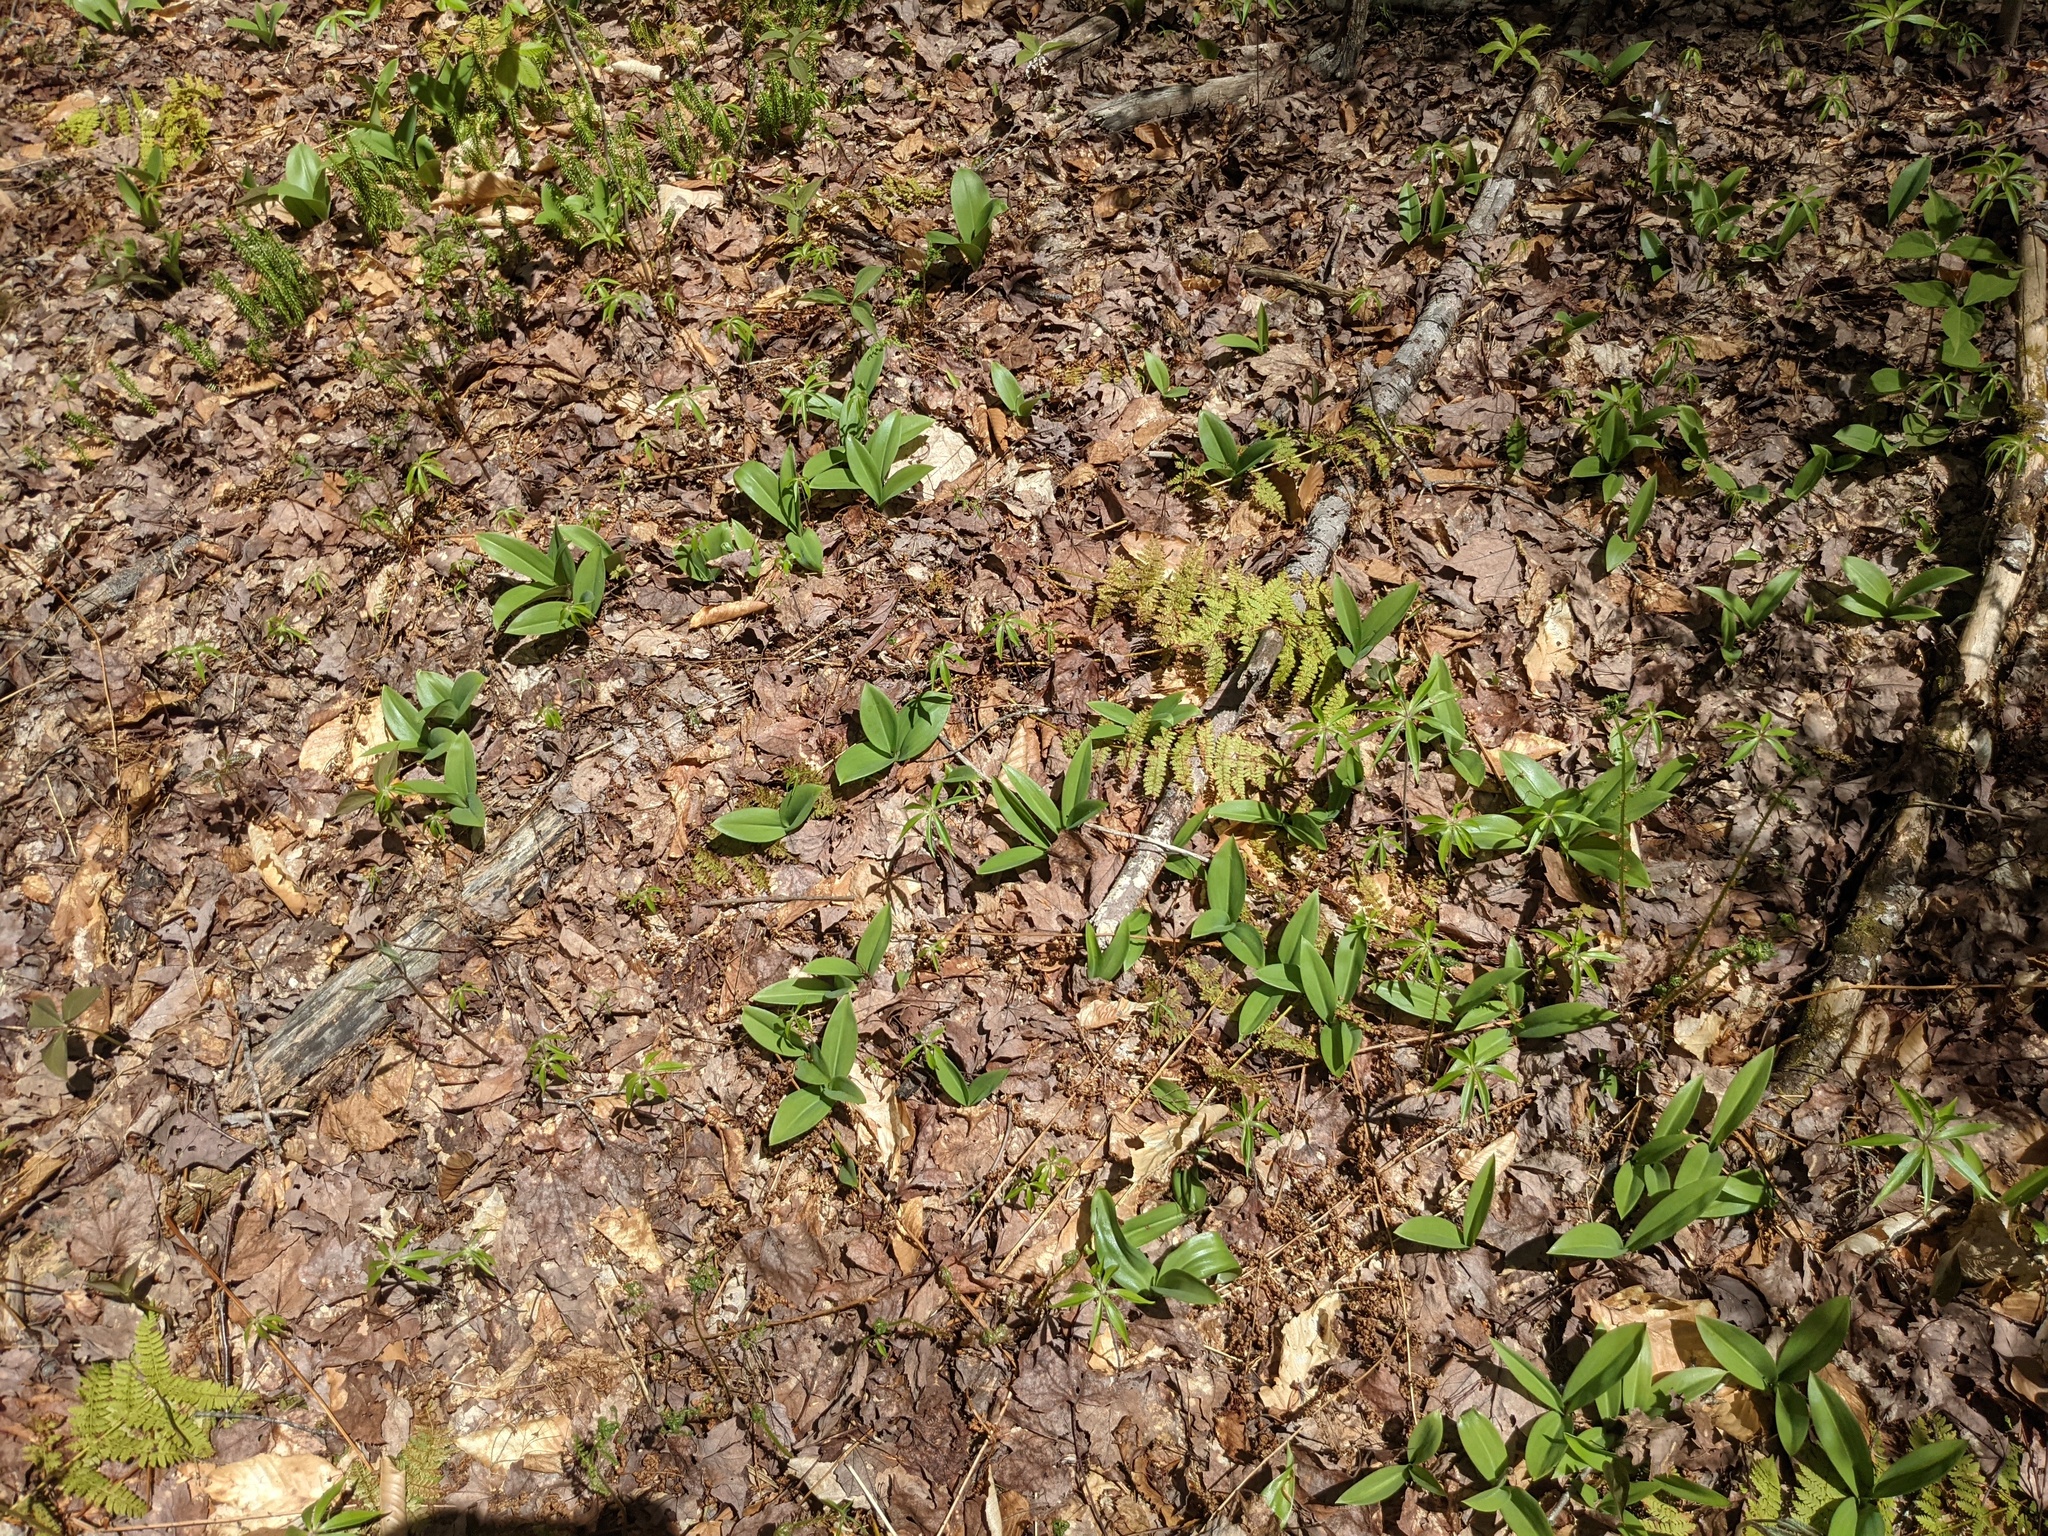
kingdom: Plantae
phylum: Tracheophyta
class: Liliopsida
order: Liliales
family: Liliaceae
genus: Clintonia
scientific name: Clintonia borealis
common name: Yellow clintonia
